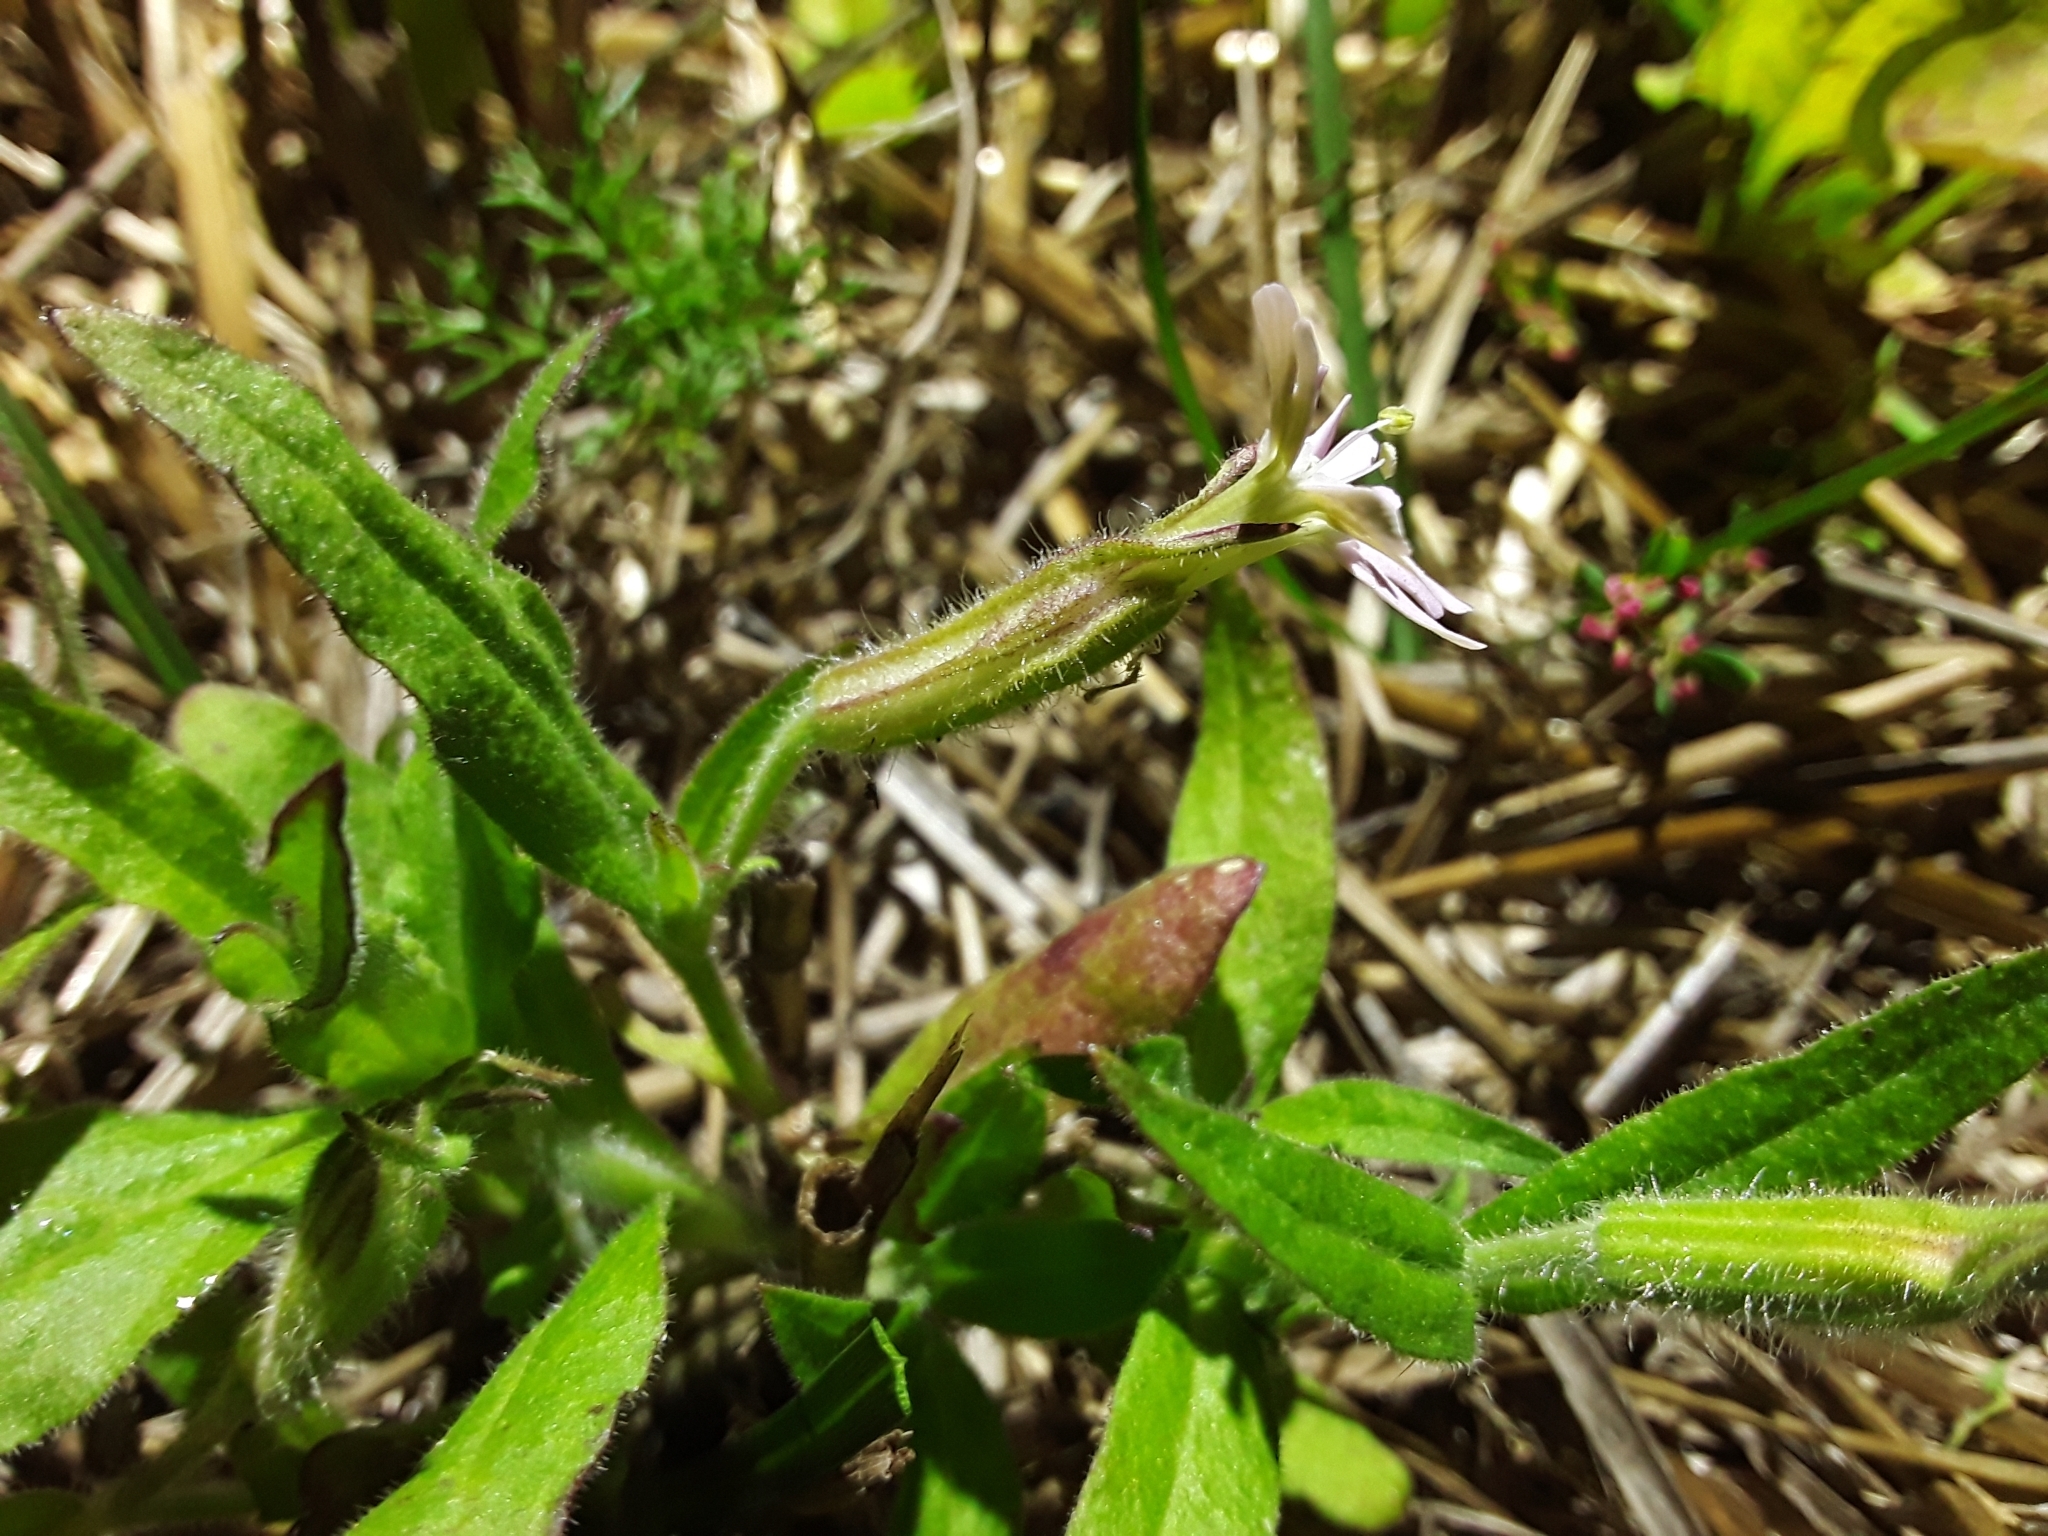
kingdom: Plantae
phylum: Tracheophyta
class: Magnoliopsida
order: Caryophyllales
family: Caryophyllaceae
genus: Silene
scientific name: Silene noctiflora
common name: Night-flowering catchfly
